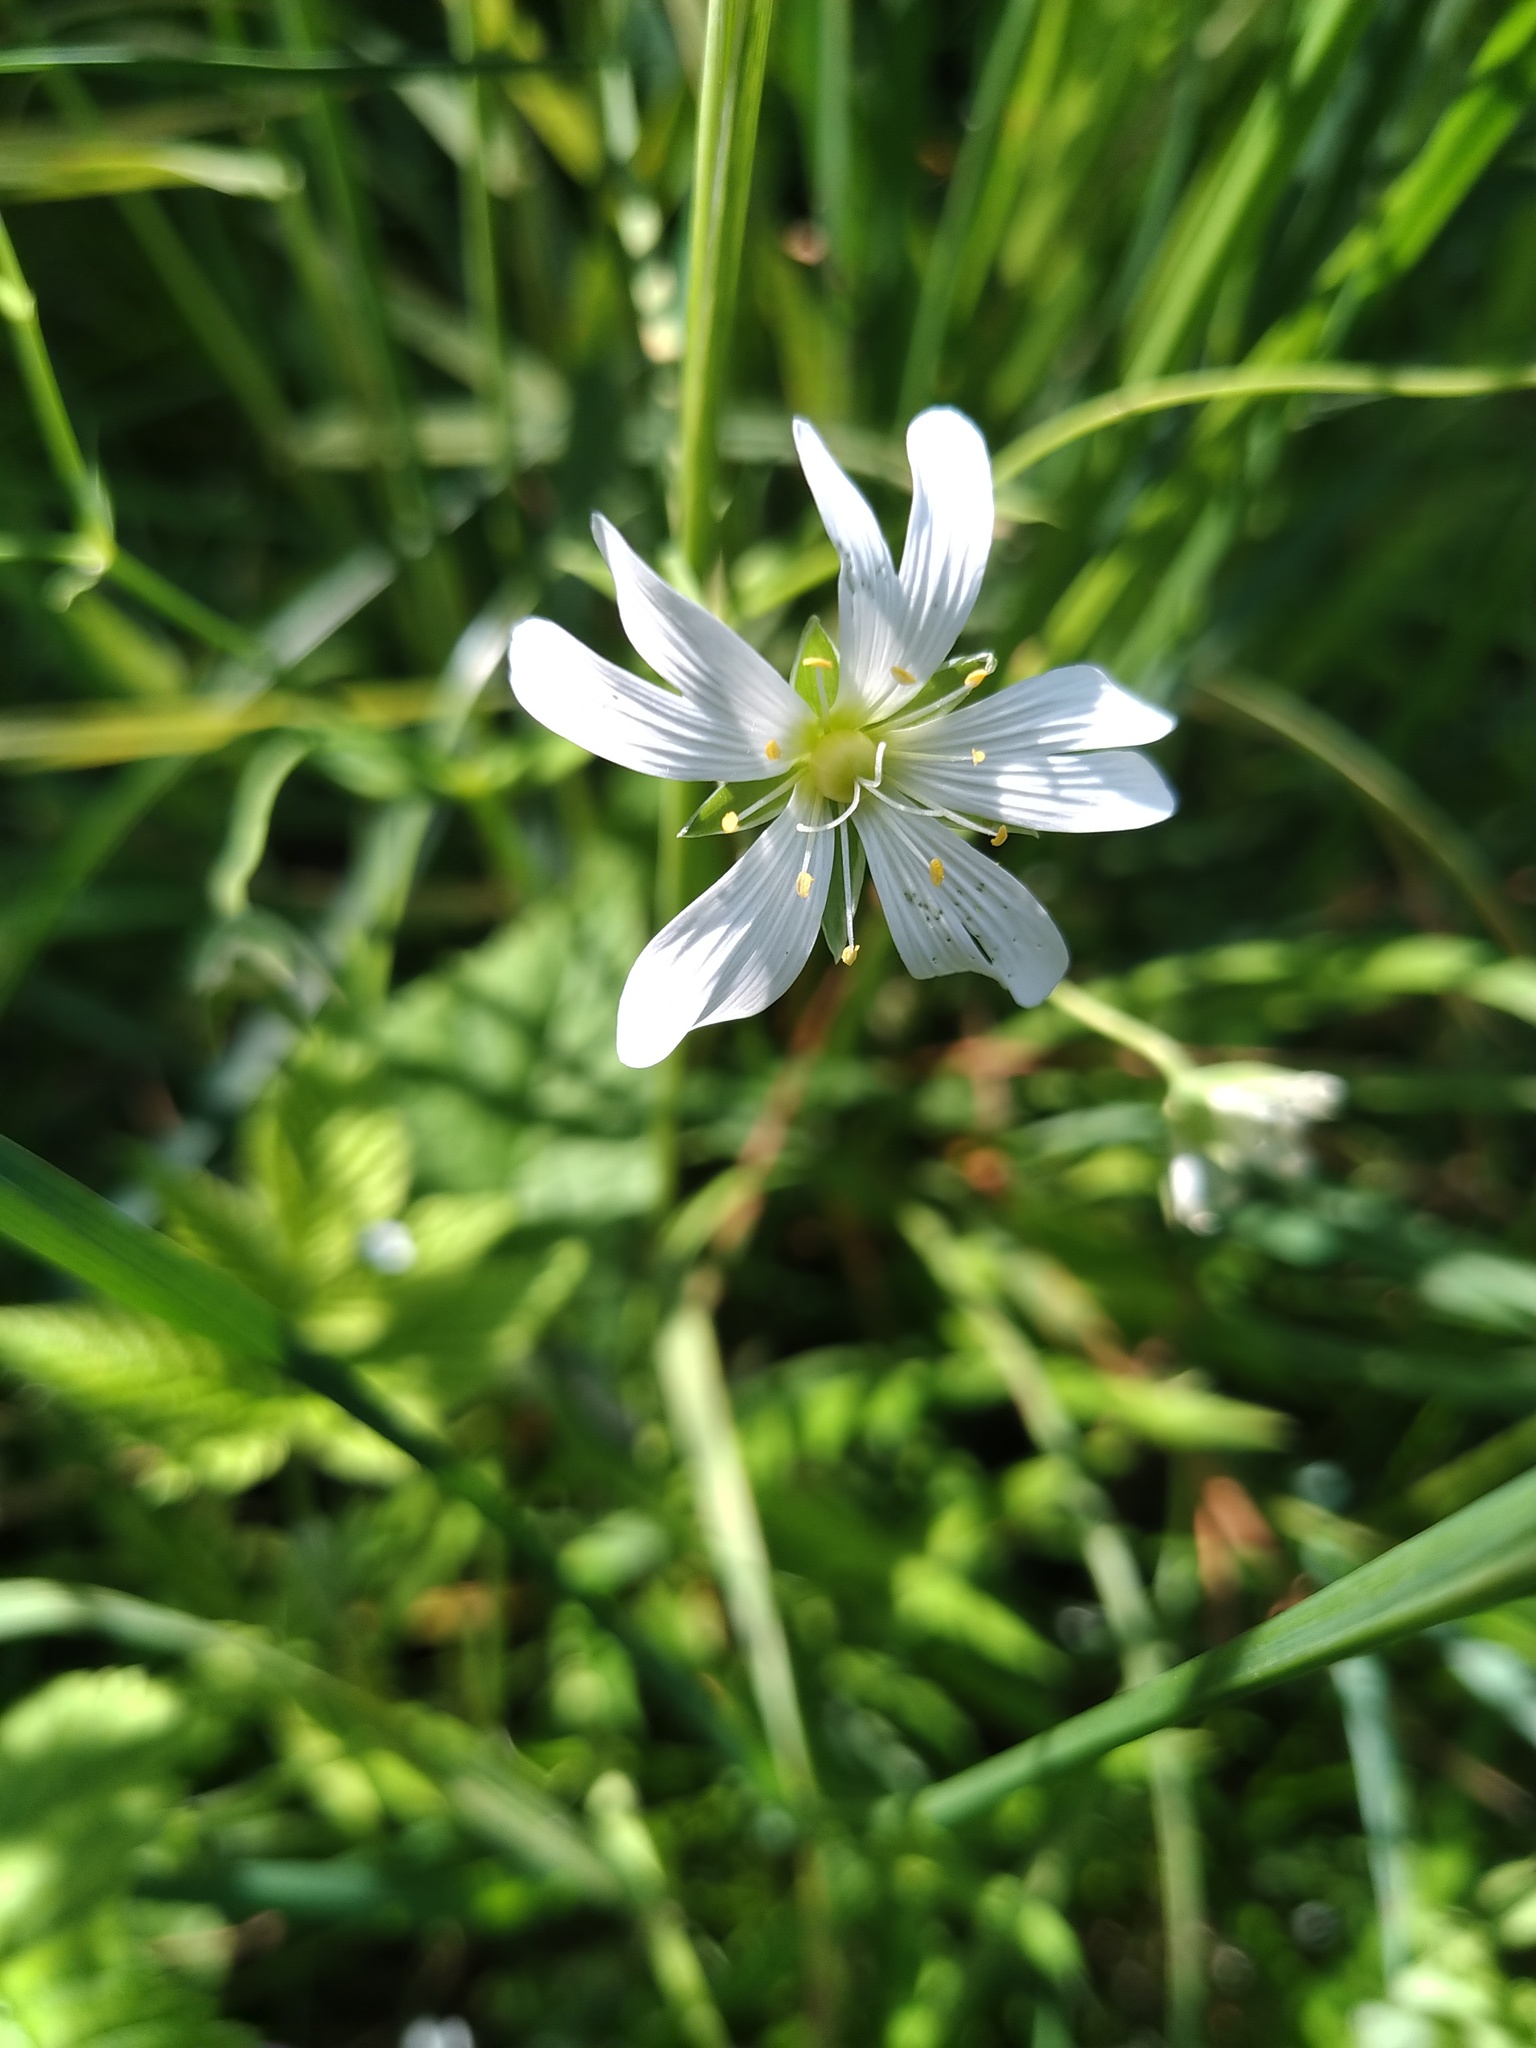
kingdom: Plantae
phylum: Tracheophyta
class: Magnoliopsida
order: Caryophyllales
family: Caryophyllaceae
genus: Rabelera
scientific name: Rabelera holostea
